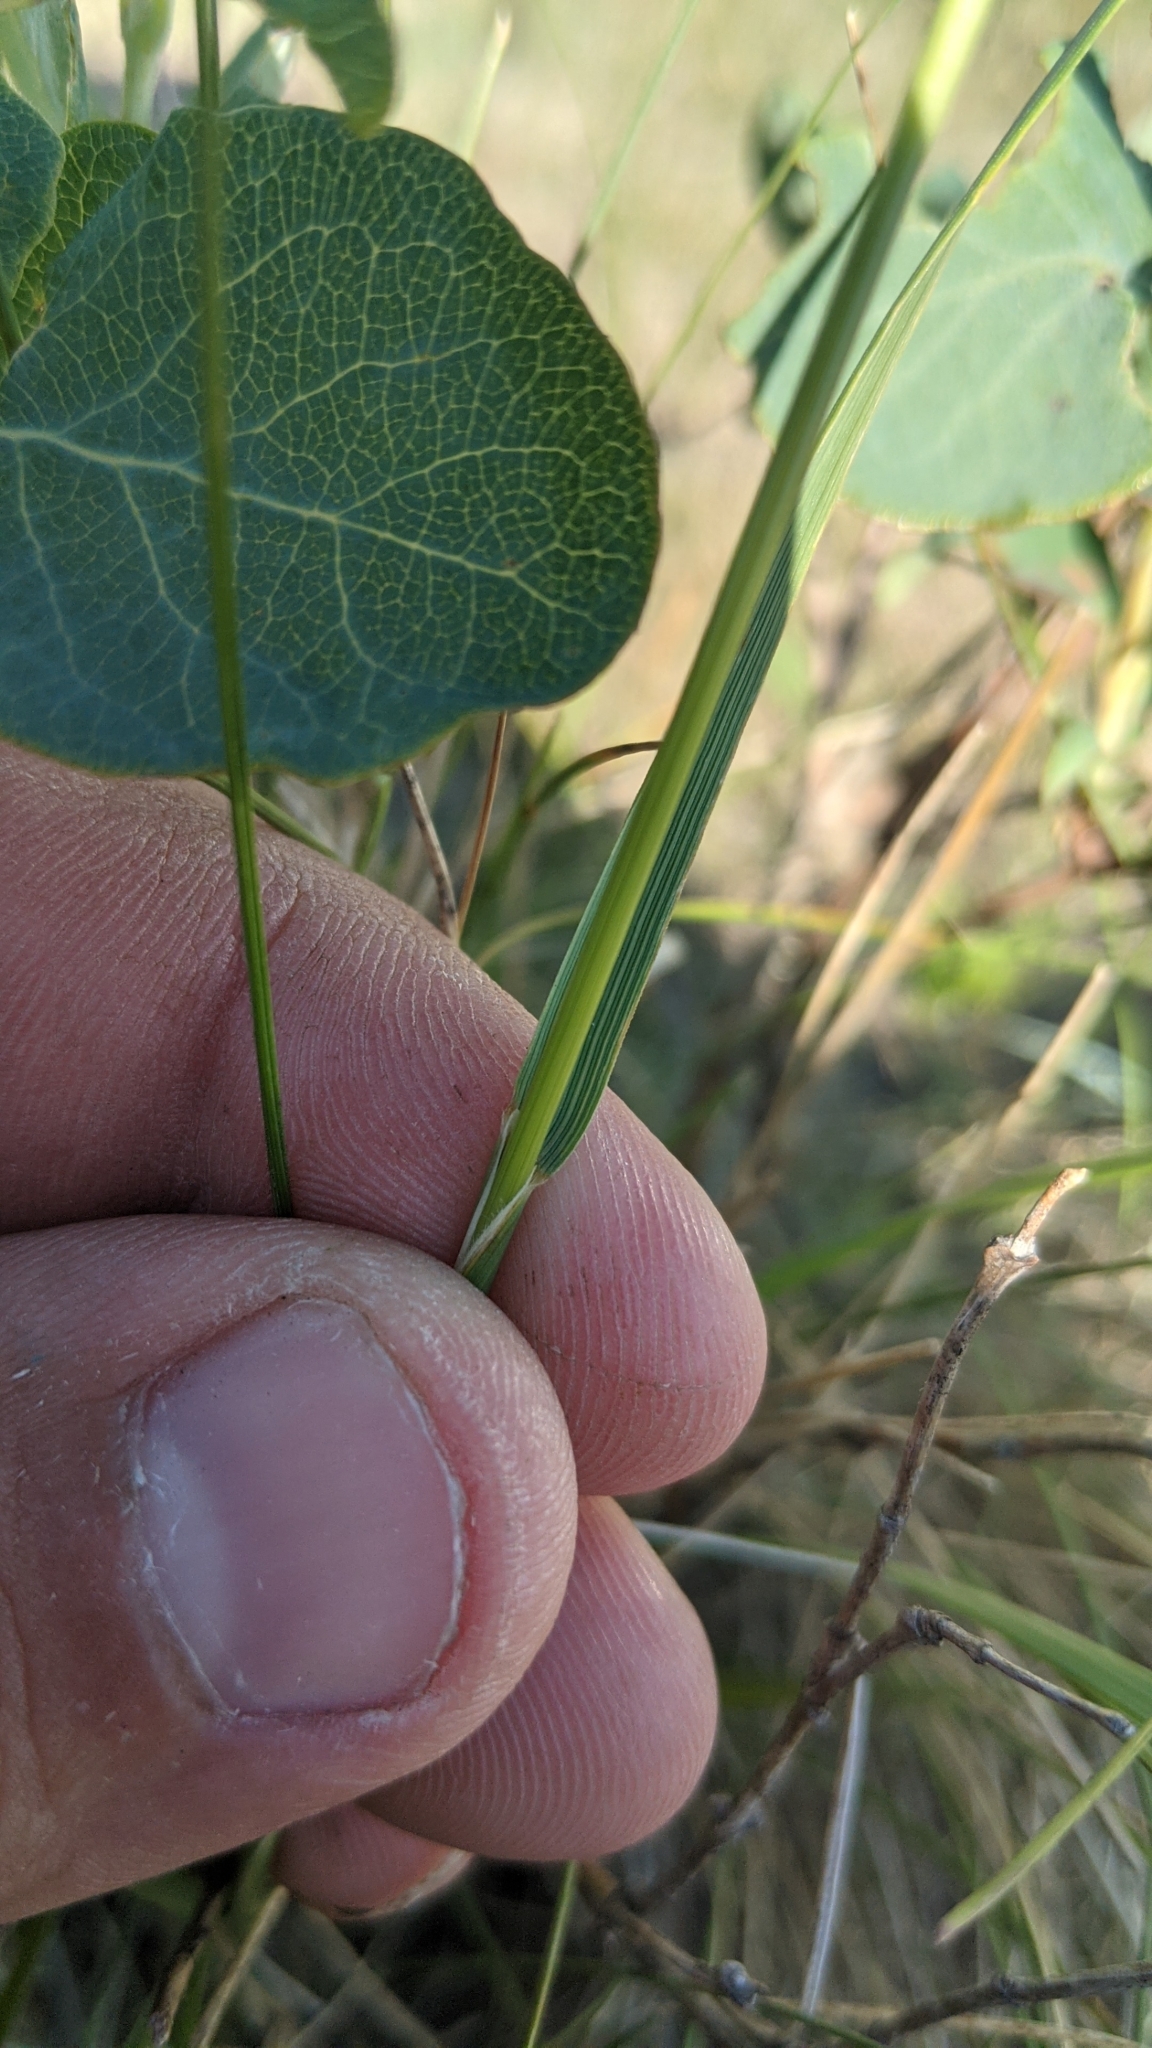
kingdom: Plantae
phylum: Tracheophyta
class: Liliopsida
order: Poales
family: Poaceae
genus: Nassella
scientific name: Nassella viridula
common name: Green needlegrass
